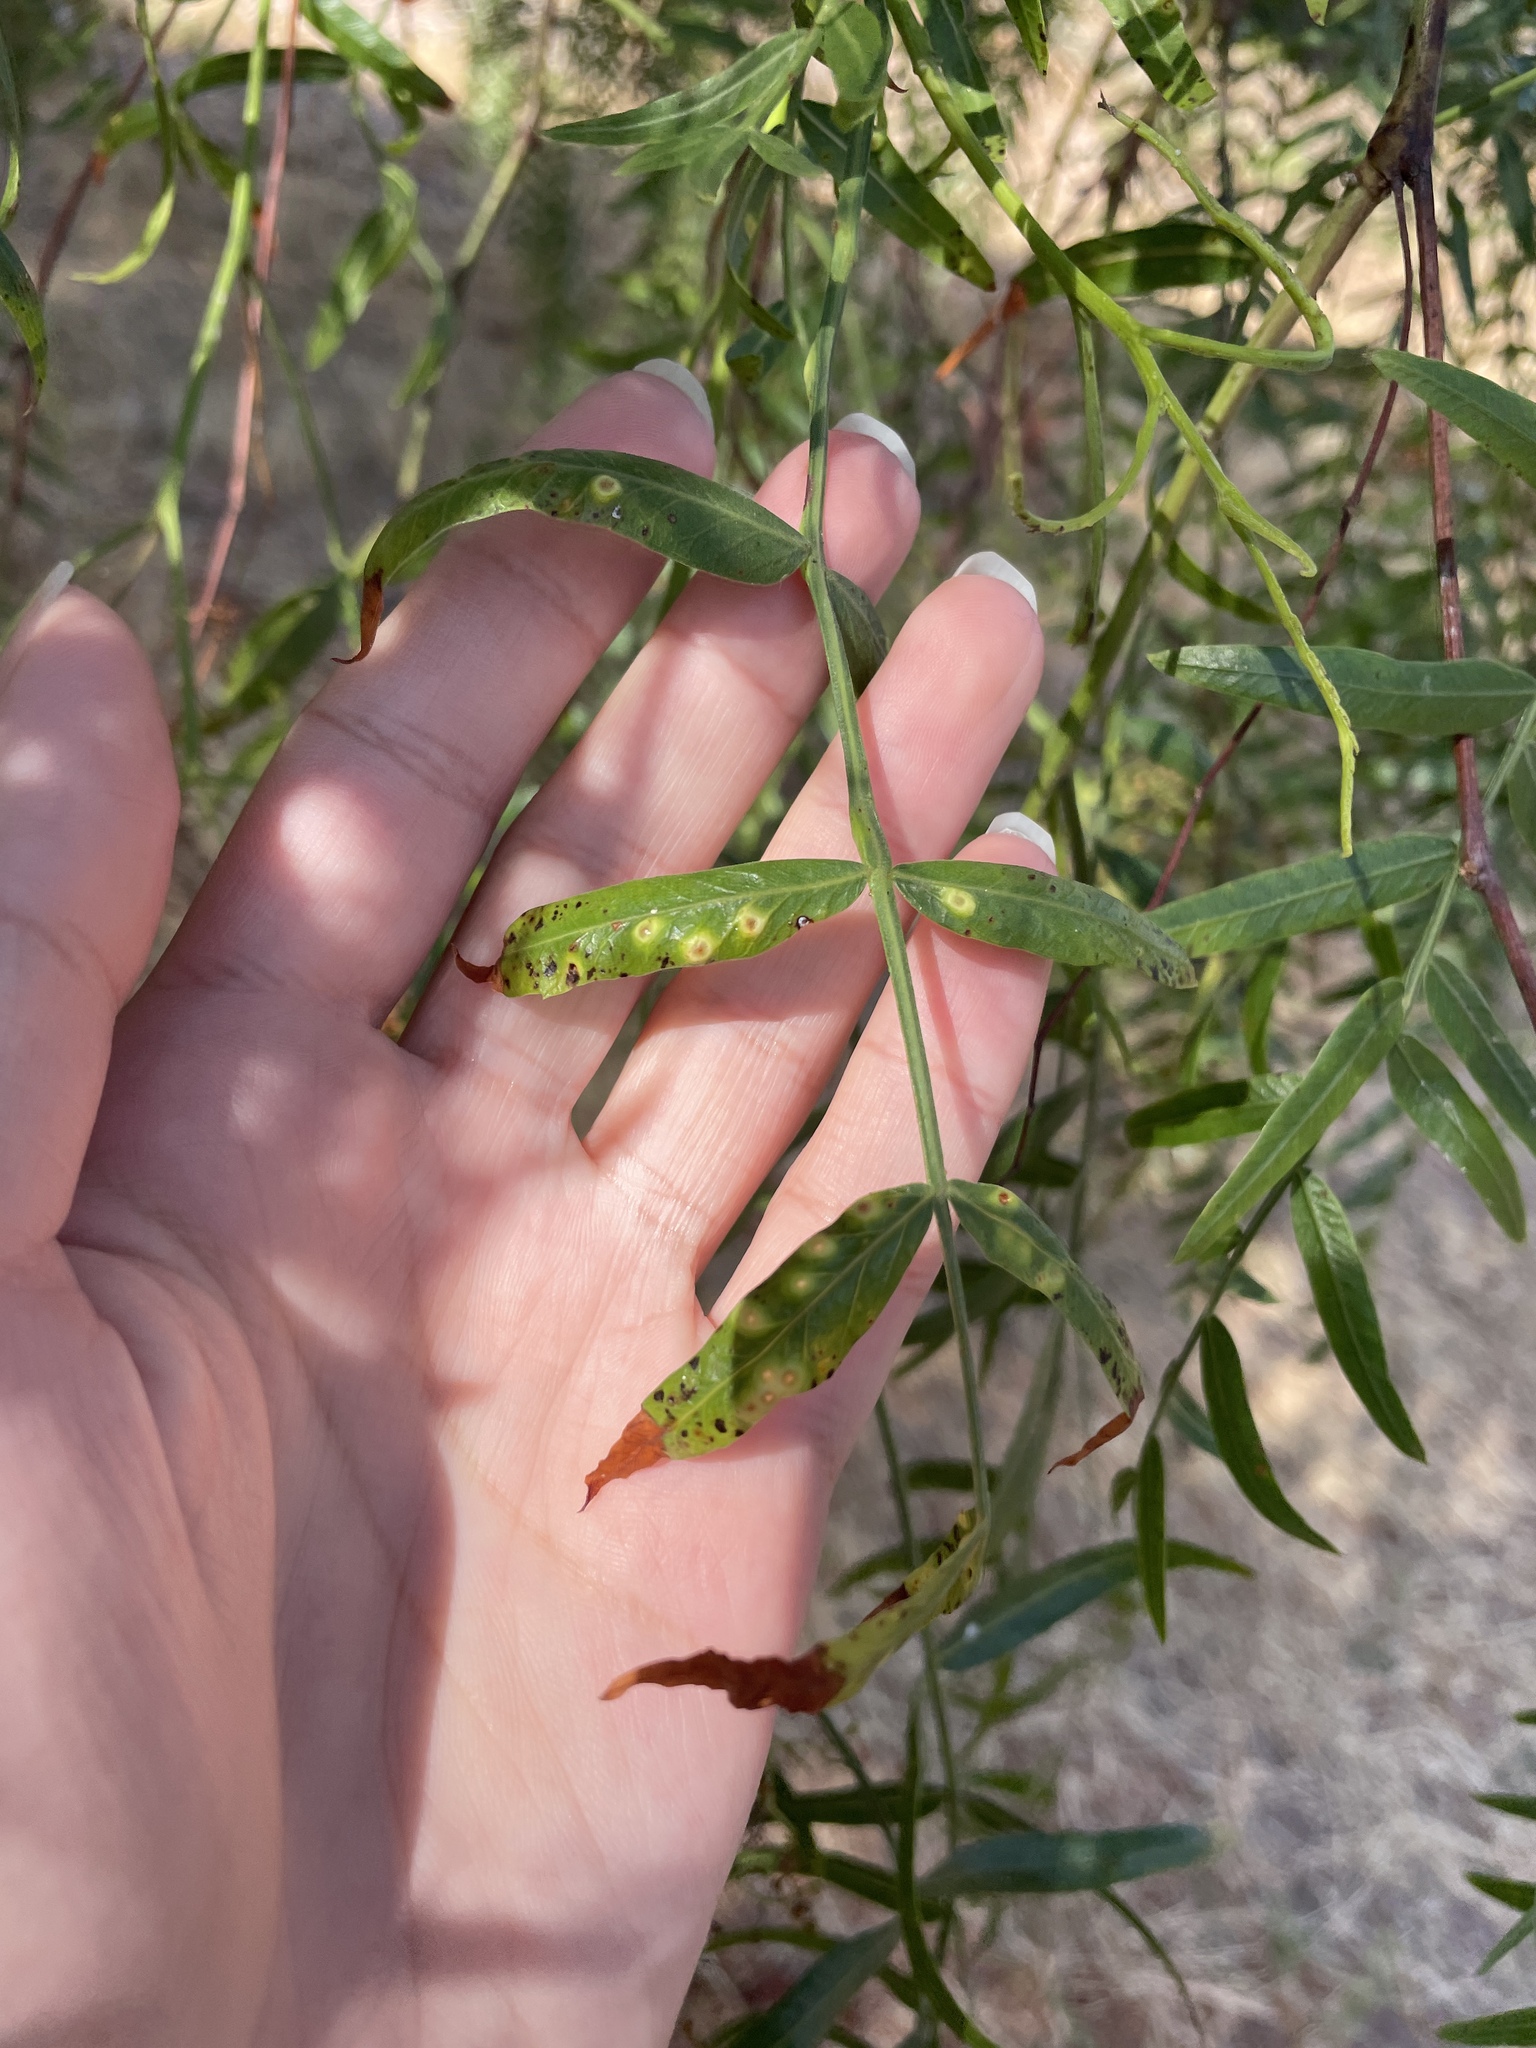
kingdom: Animalia
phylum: Arthropoda
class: Insecta
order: Hemiptera
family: Calophyidae
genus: Calophya
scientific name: Calophya schini
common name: Pepper tree psyllid
